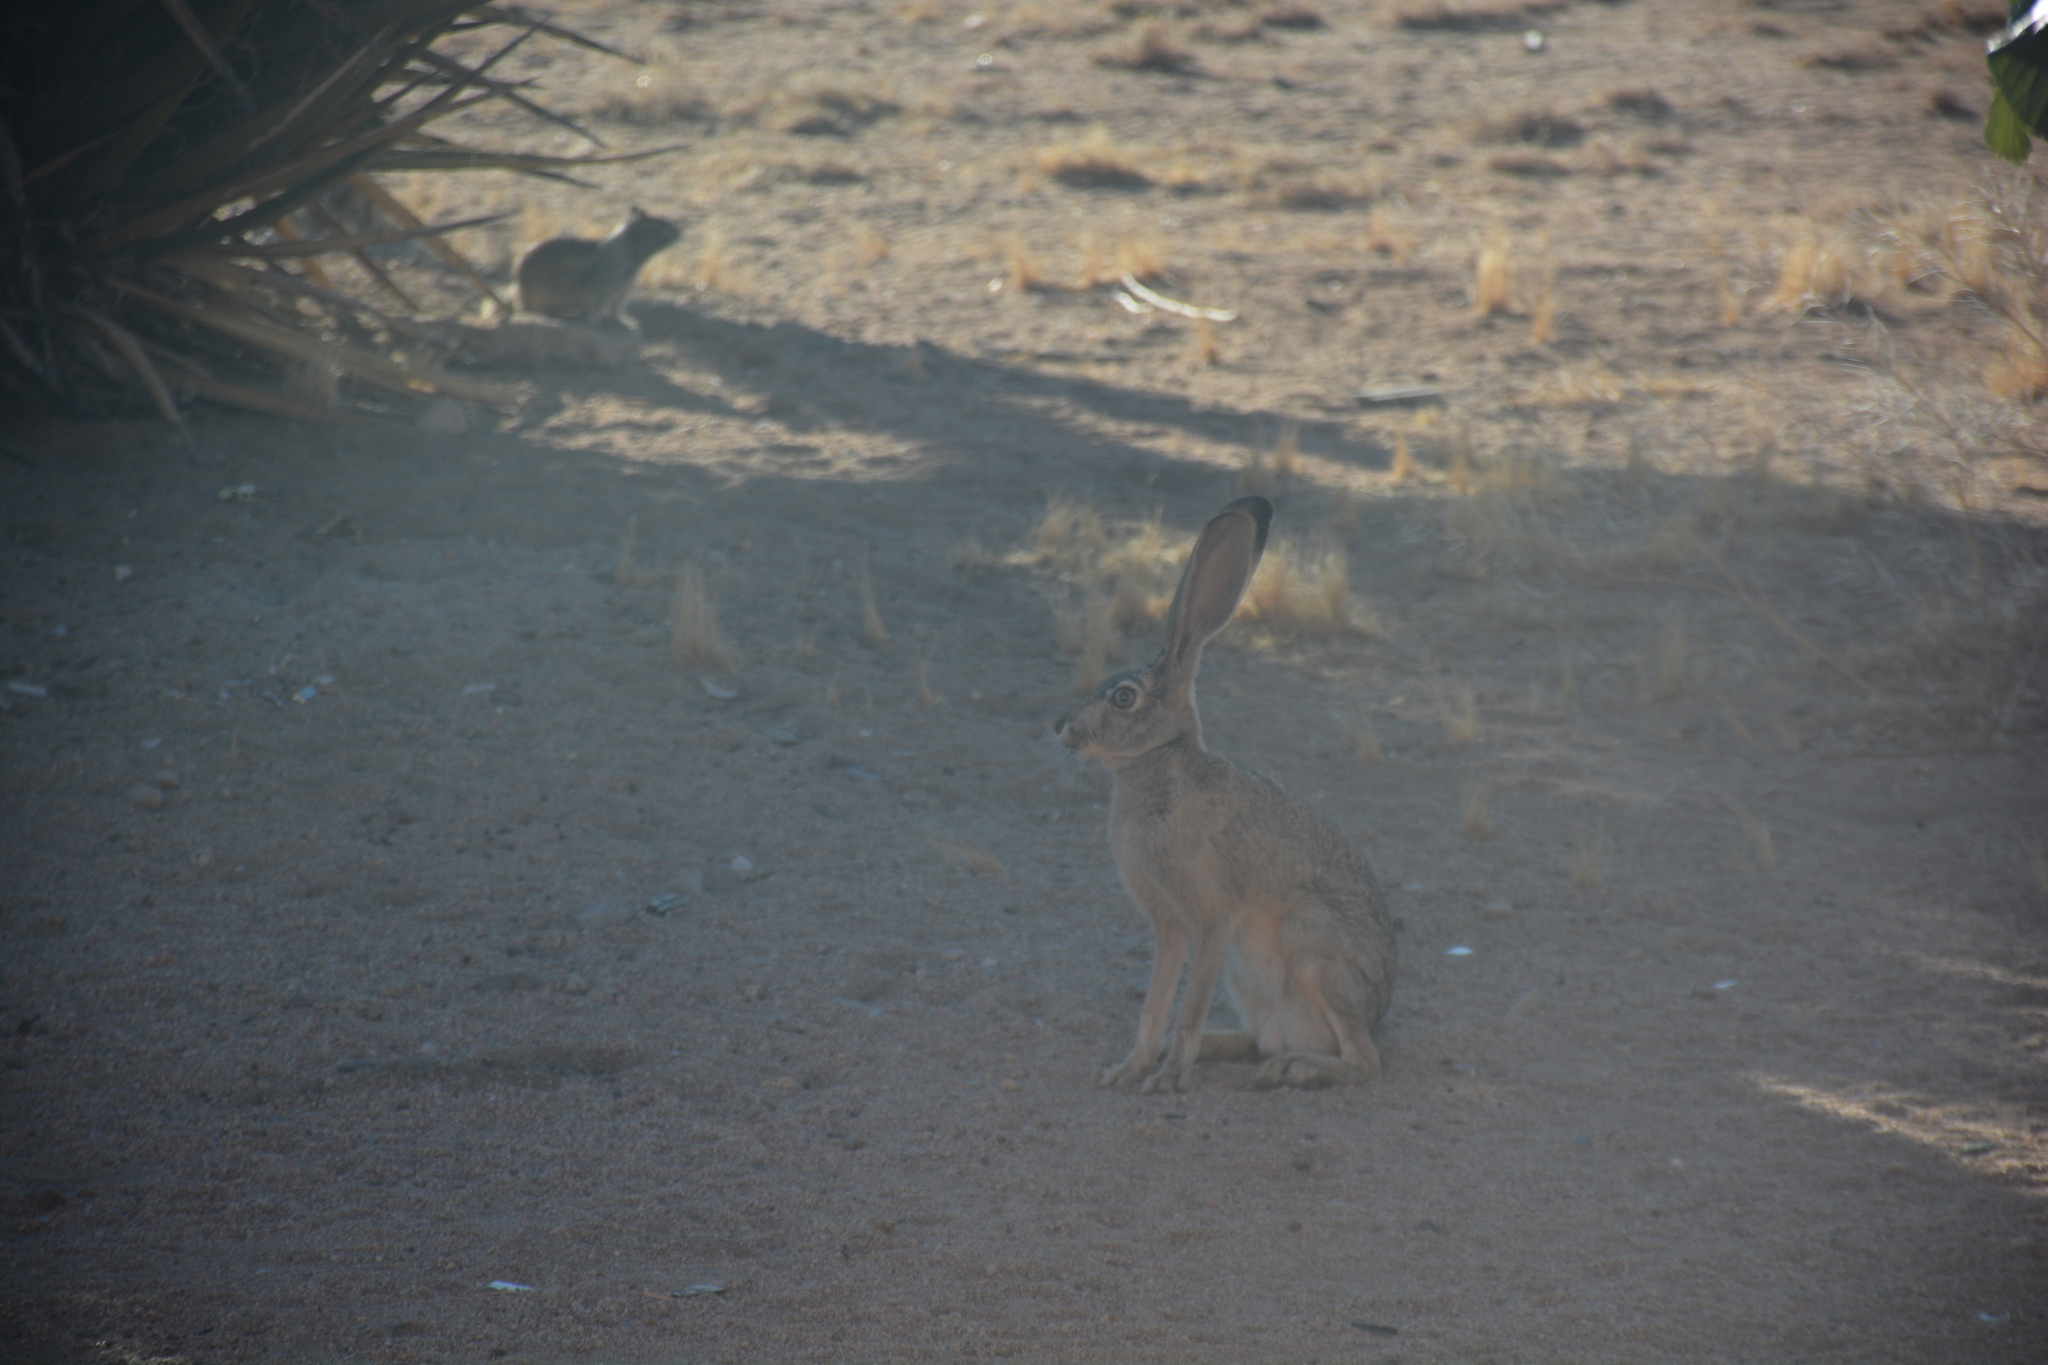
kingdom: Animalia
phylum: Chordata
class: Mammalia
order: Lagomorpha
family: Leporidae
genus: Lepus
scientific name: Lepus californicus
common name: Black-tailed jackrabbit
